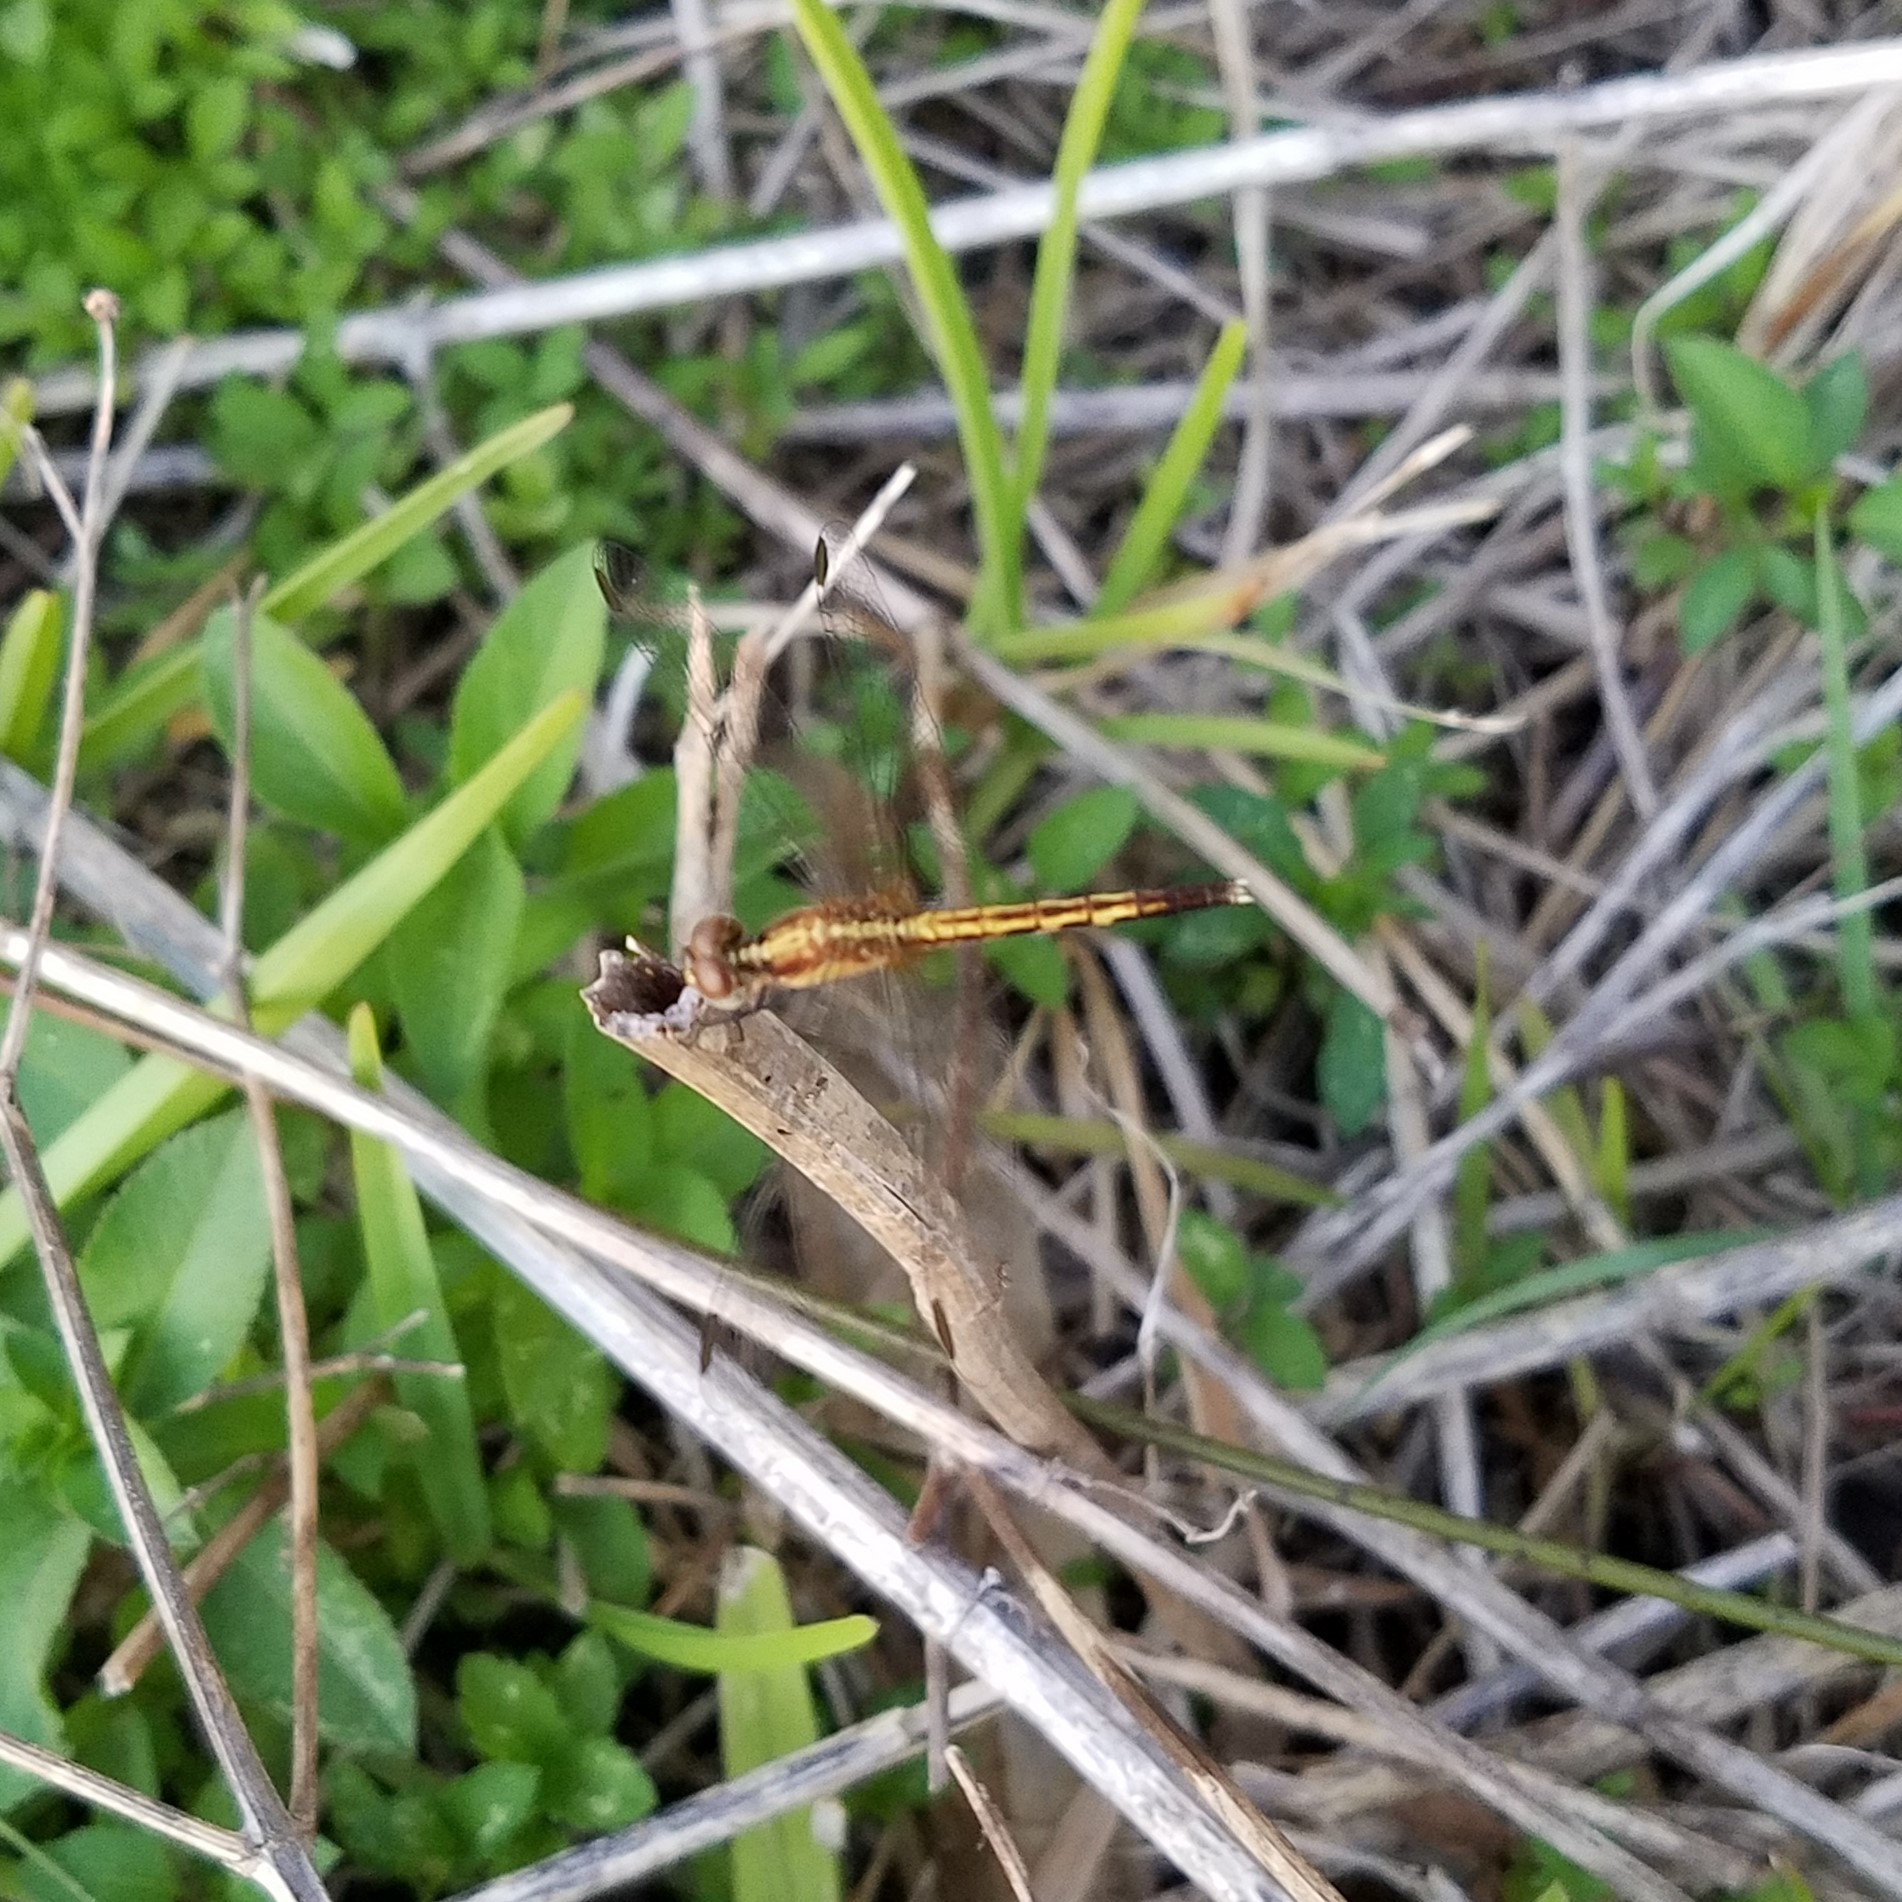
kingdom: Animalia
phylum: Arthropoda
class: Insecta
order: Odonata
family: Libellulidae
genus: Erythrodiplax
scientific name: Erythrodiplax minuscula
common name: Little blue dragonlet
